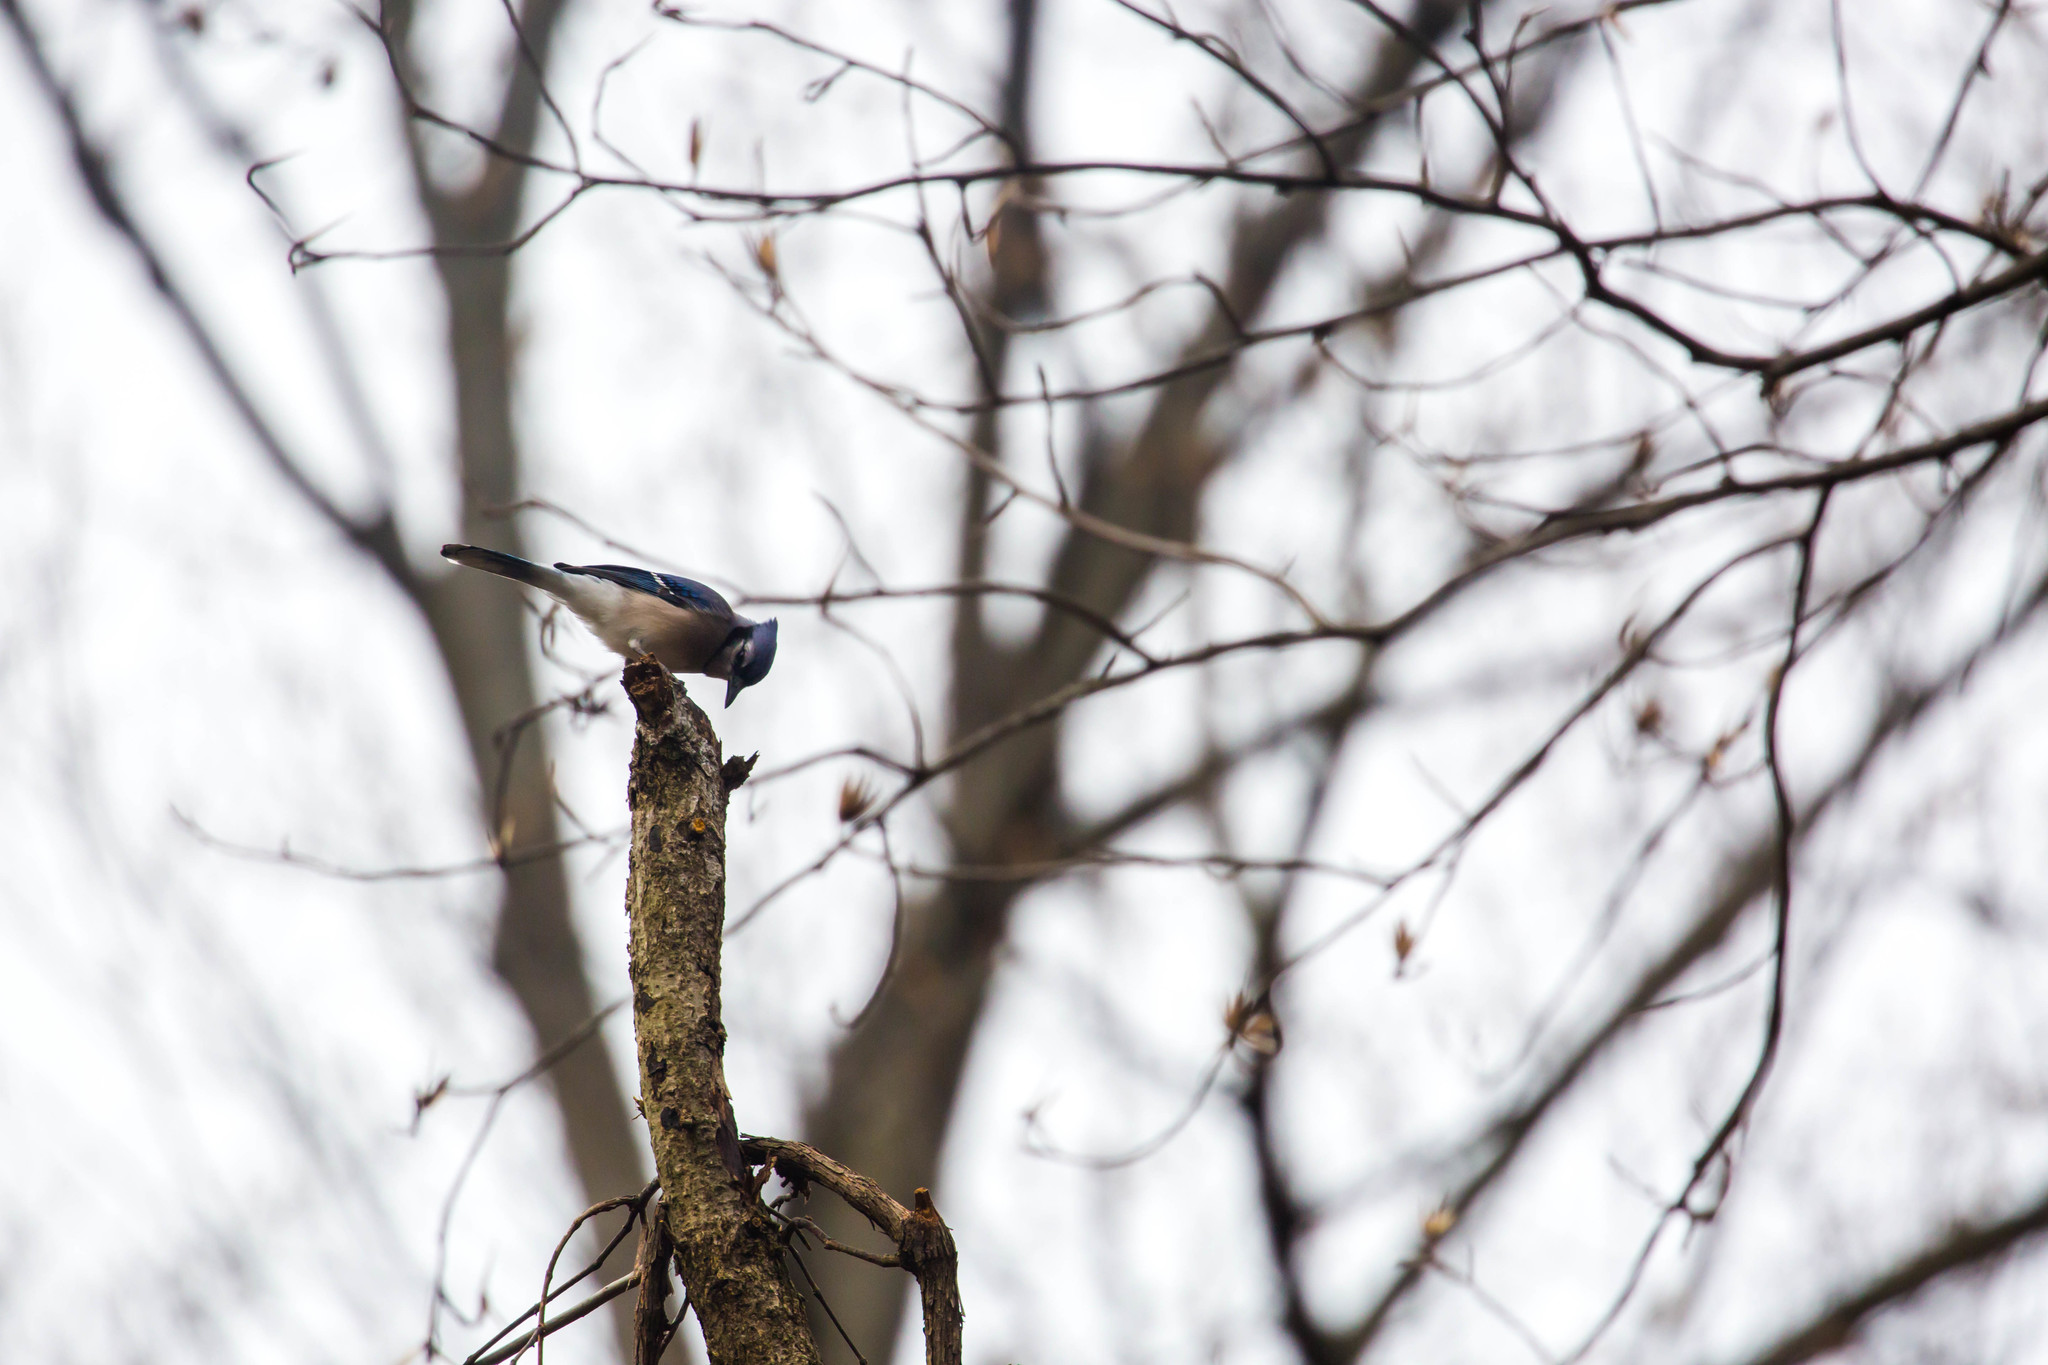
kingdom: Animalia
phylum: Chordata
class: Aves
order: Passeriformes
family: Corvidae
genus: Cyanocitta
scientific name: Cyanocitta cristata
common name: Blue jay
